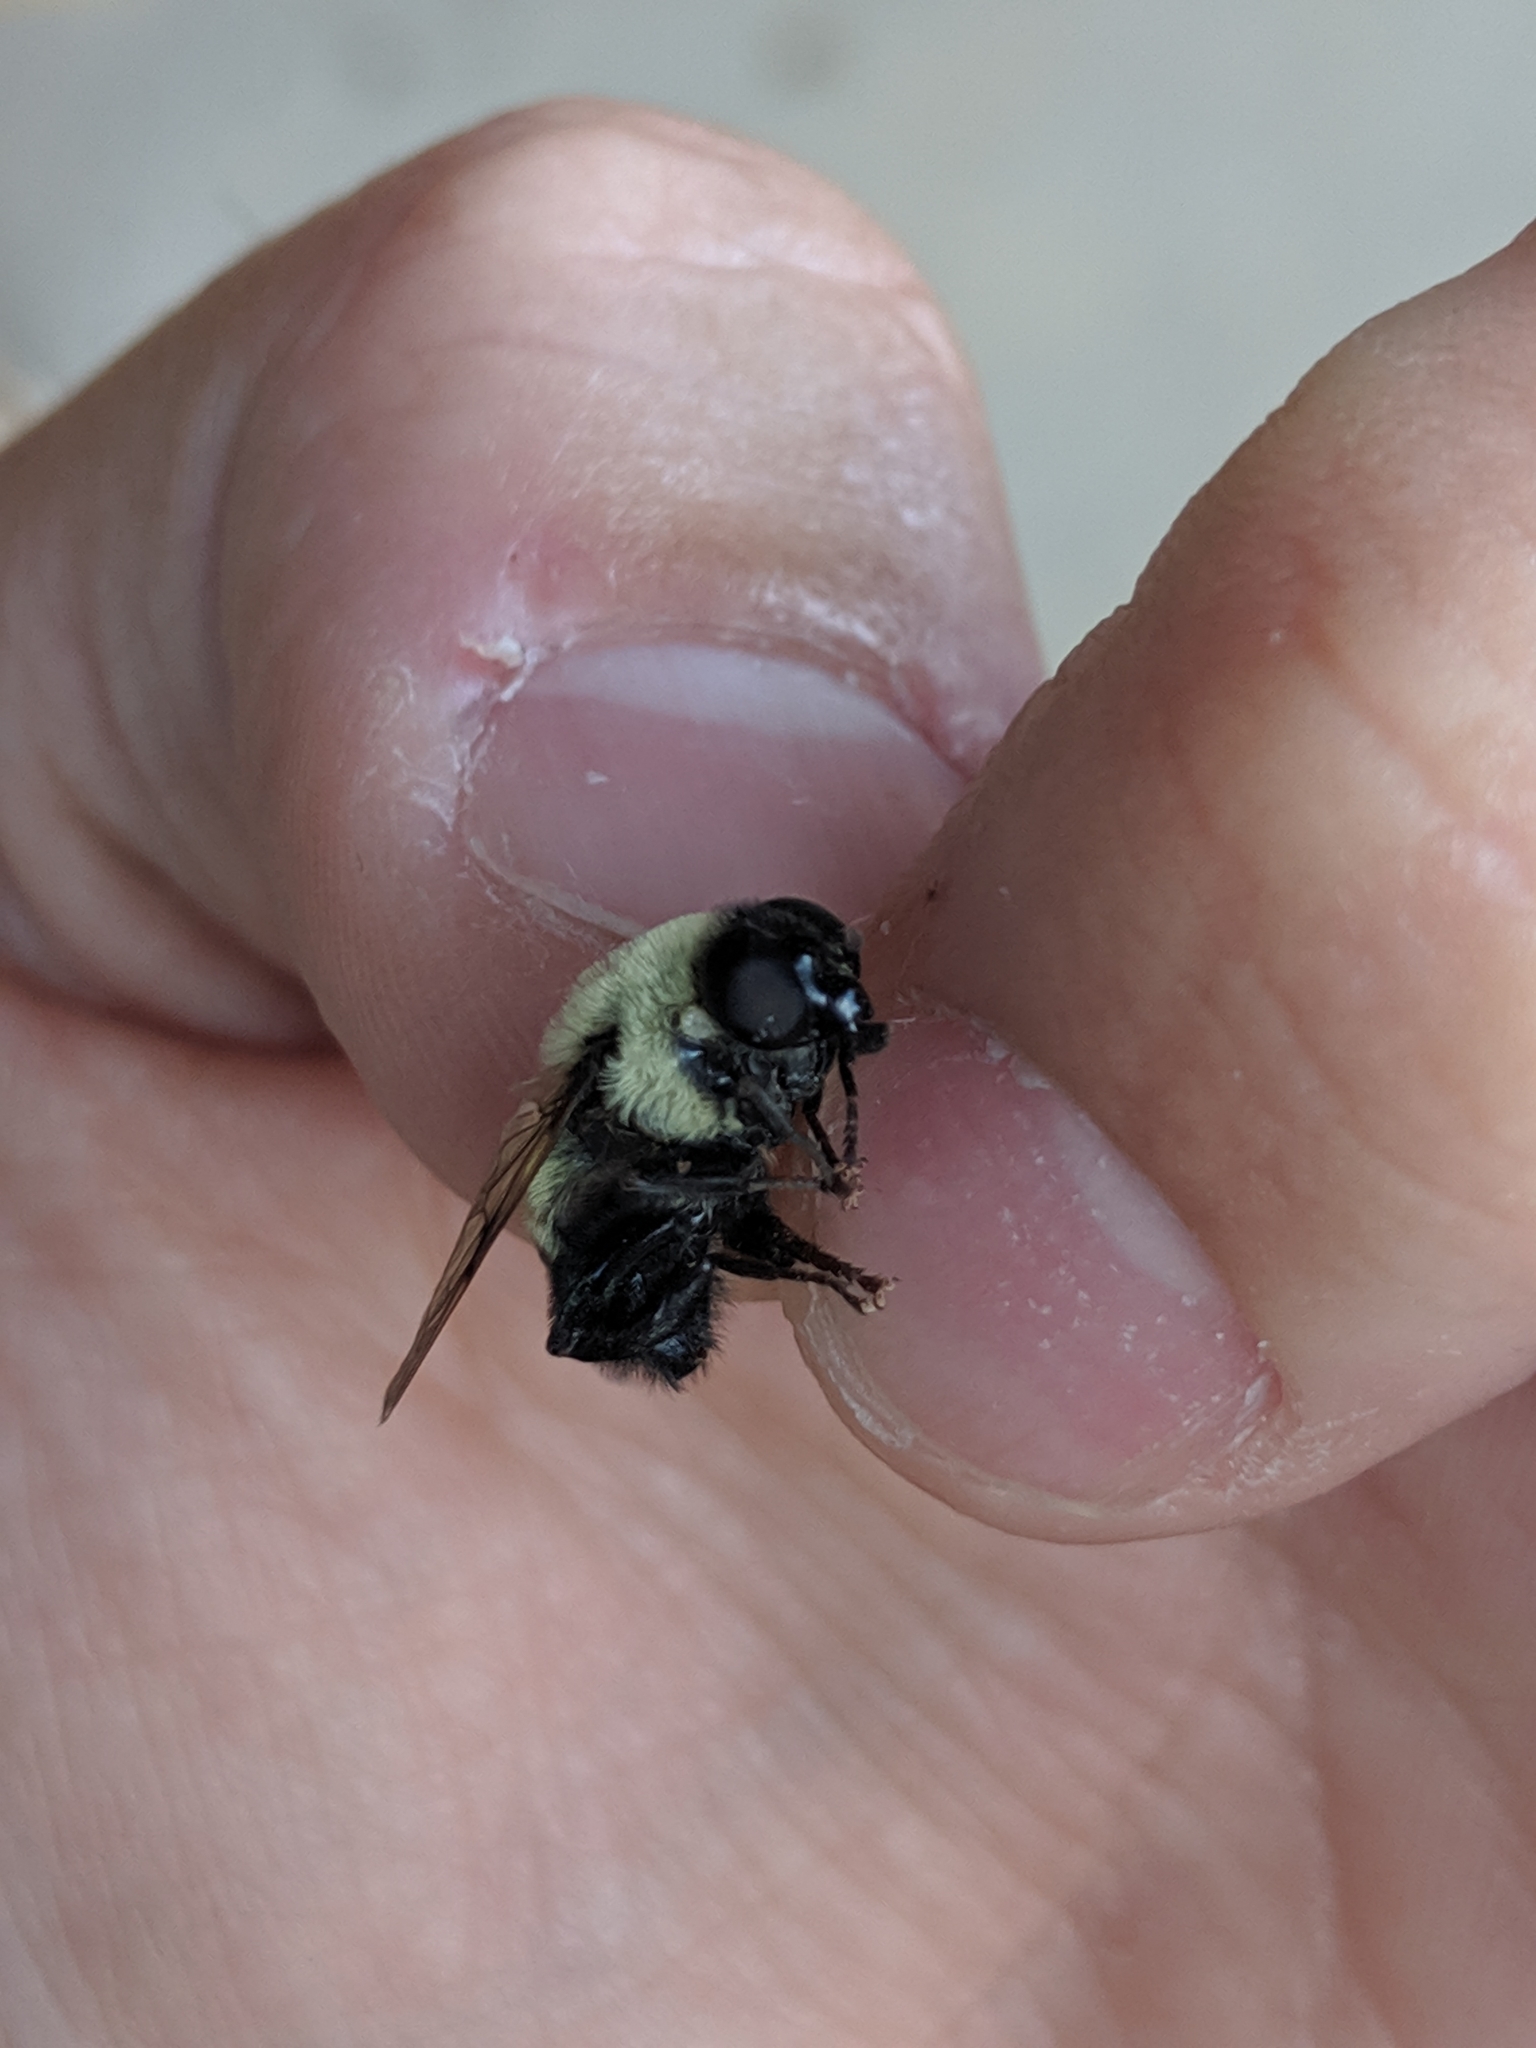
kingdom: Animalia
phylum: Arthropoda
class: Insecta
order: Diptera
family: Syrphidae
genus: Imatisma
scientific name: Imatisma posticata
